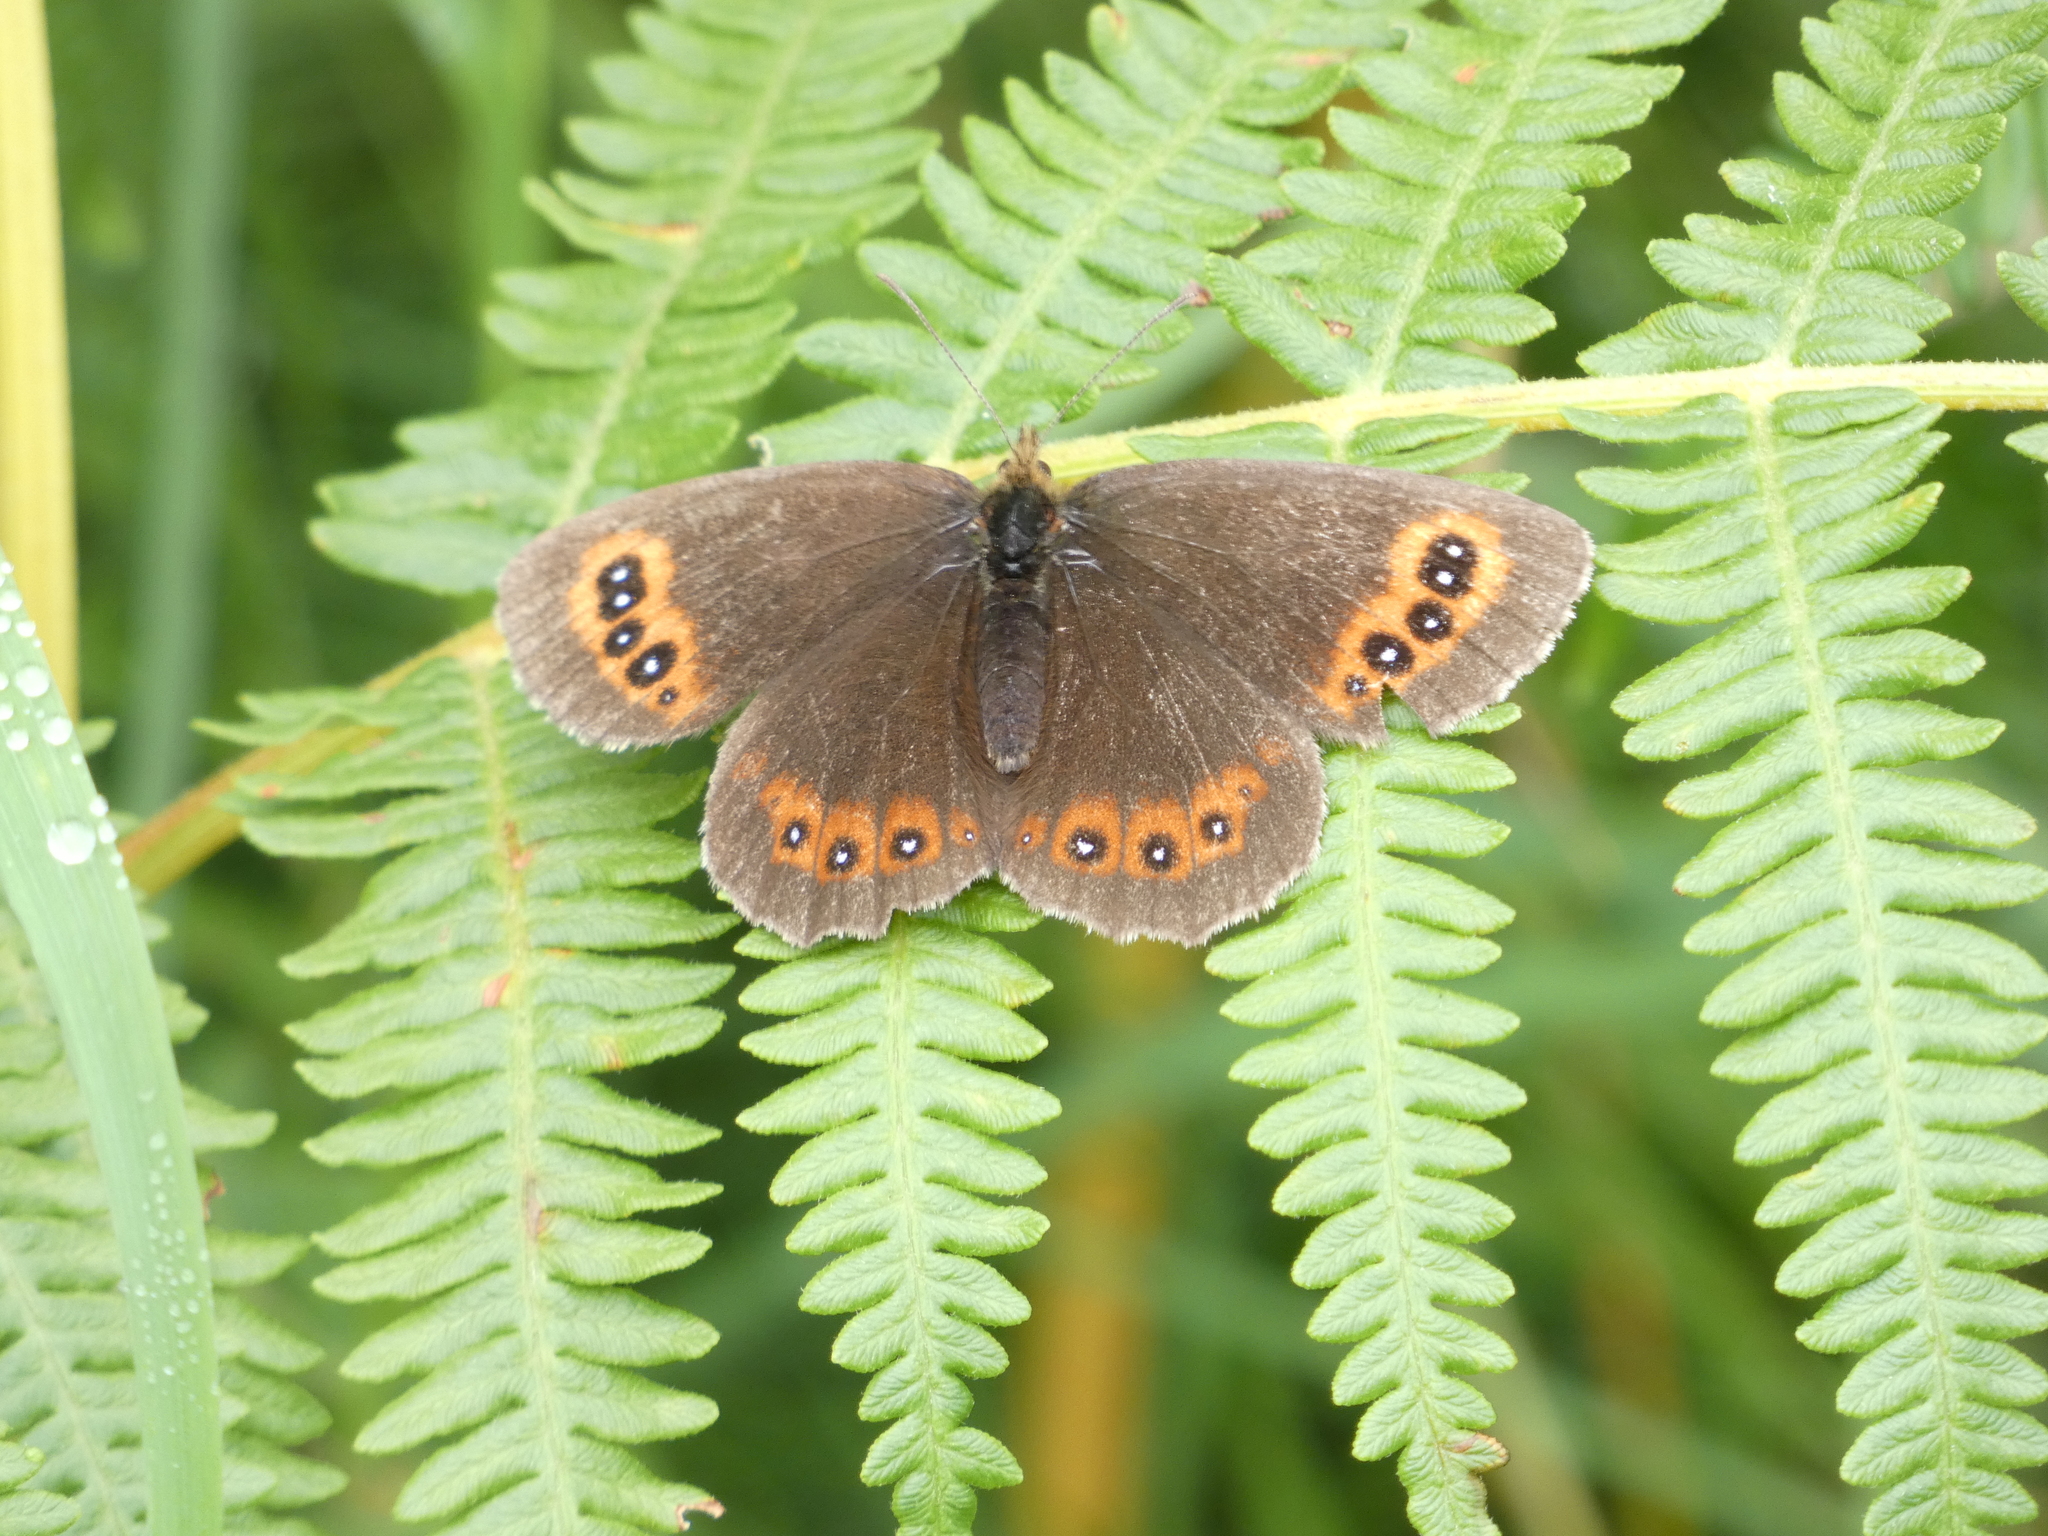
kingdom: Animalia
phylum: Arthropoda
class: Insecta
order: Lepidoptera
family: Nymphalidae
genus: Erebia
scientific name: Erebia aethiops
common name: Scotch argus
